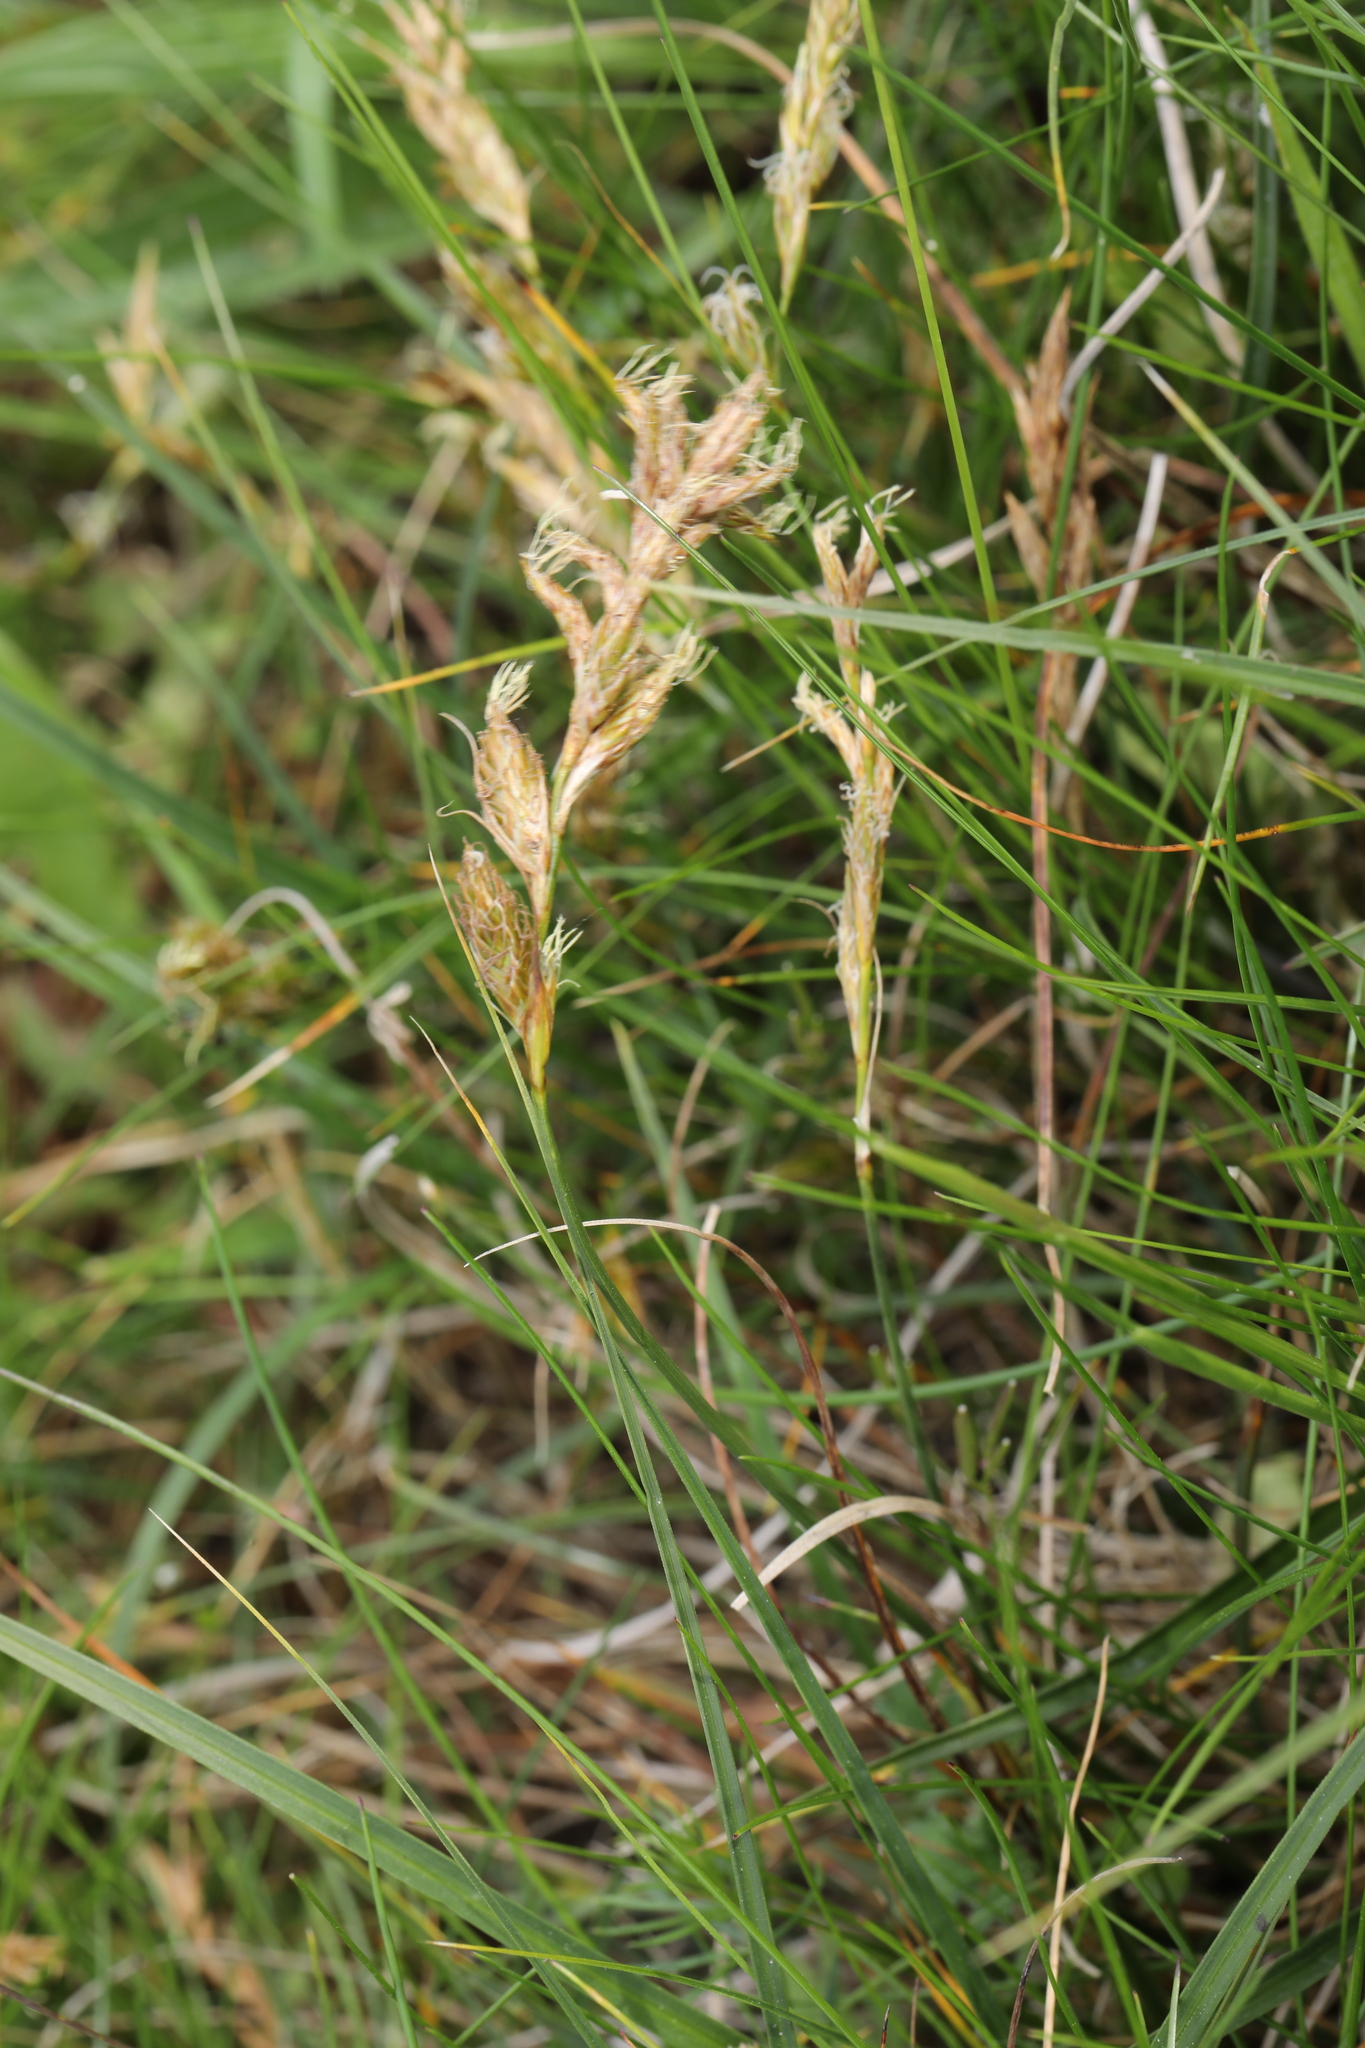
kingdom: Plantae
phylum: Tracheophyta
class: Liliopsida
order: Poales
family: Cyperaceae
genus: Carex
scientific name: Carex arenaria
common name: Sand sedge
